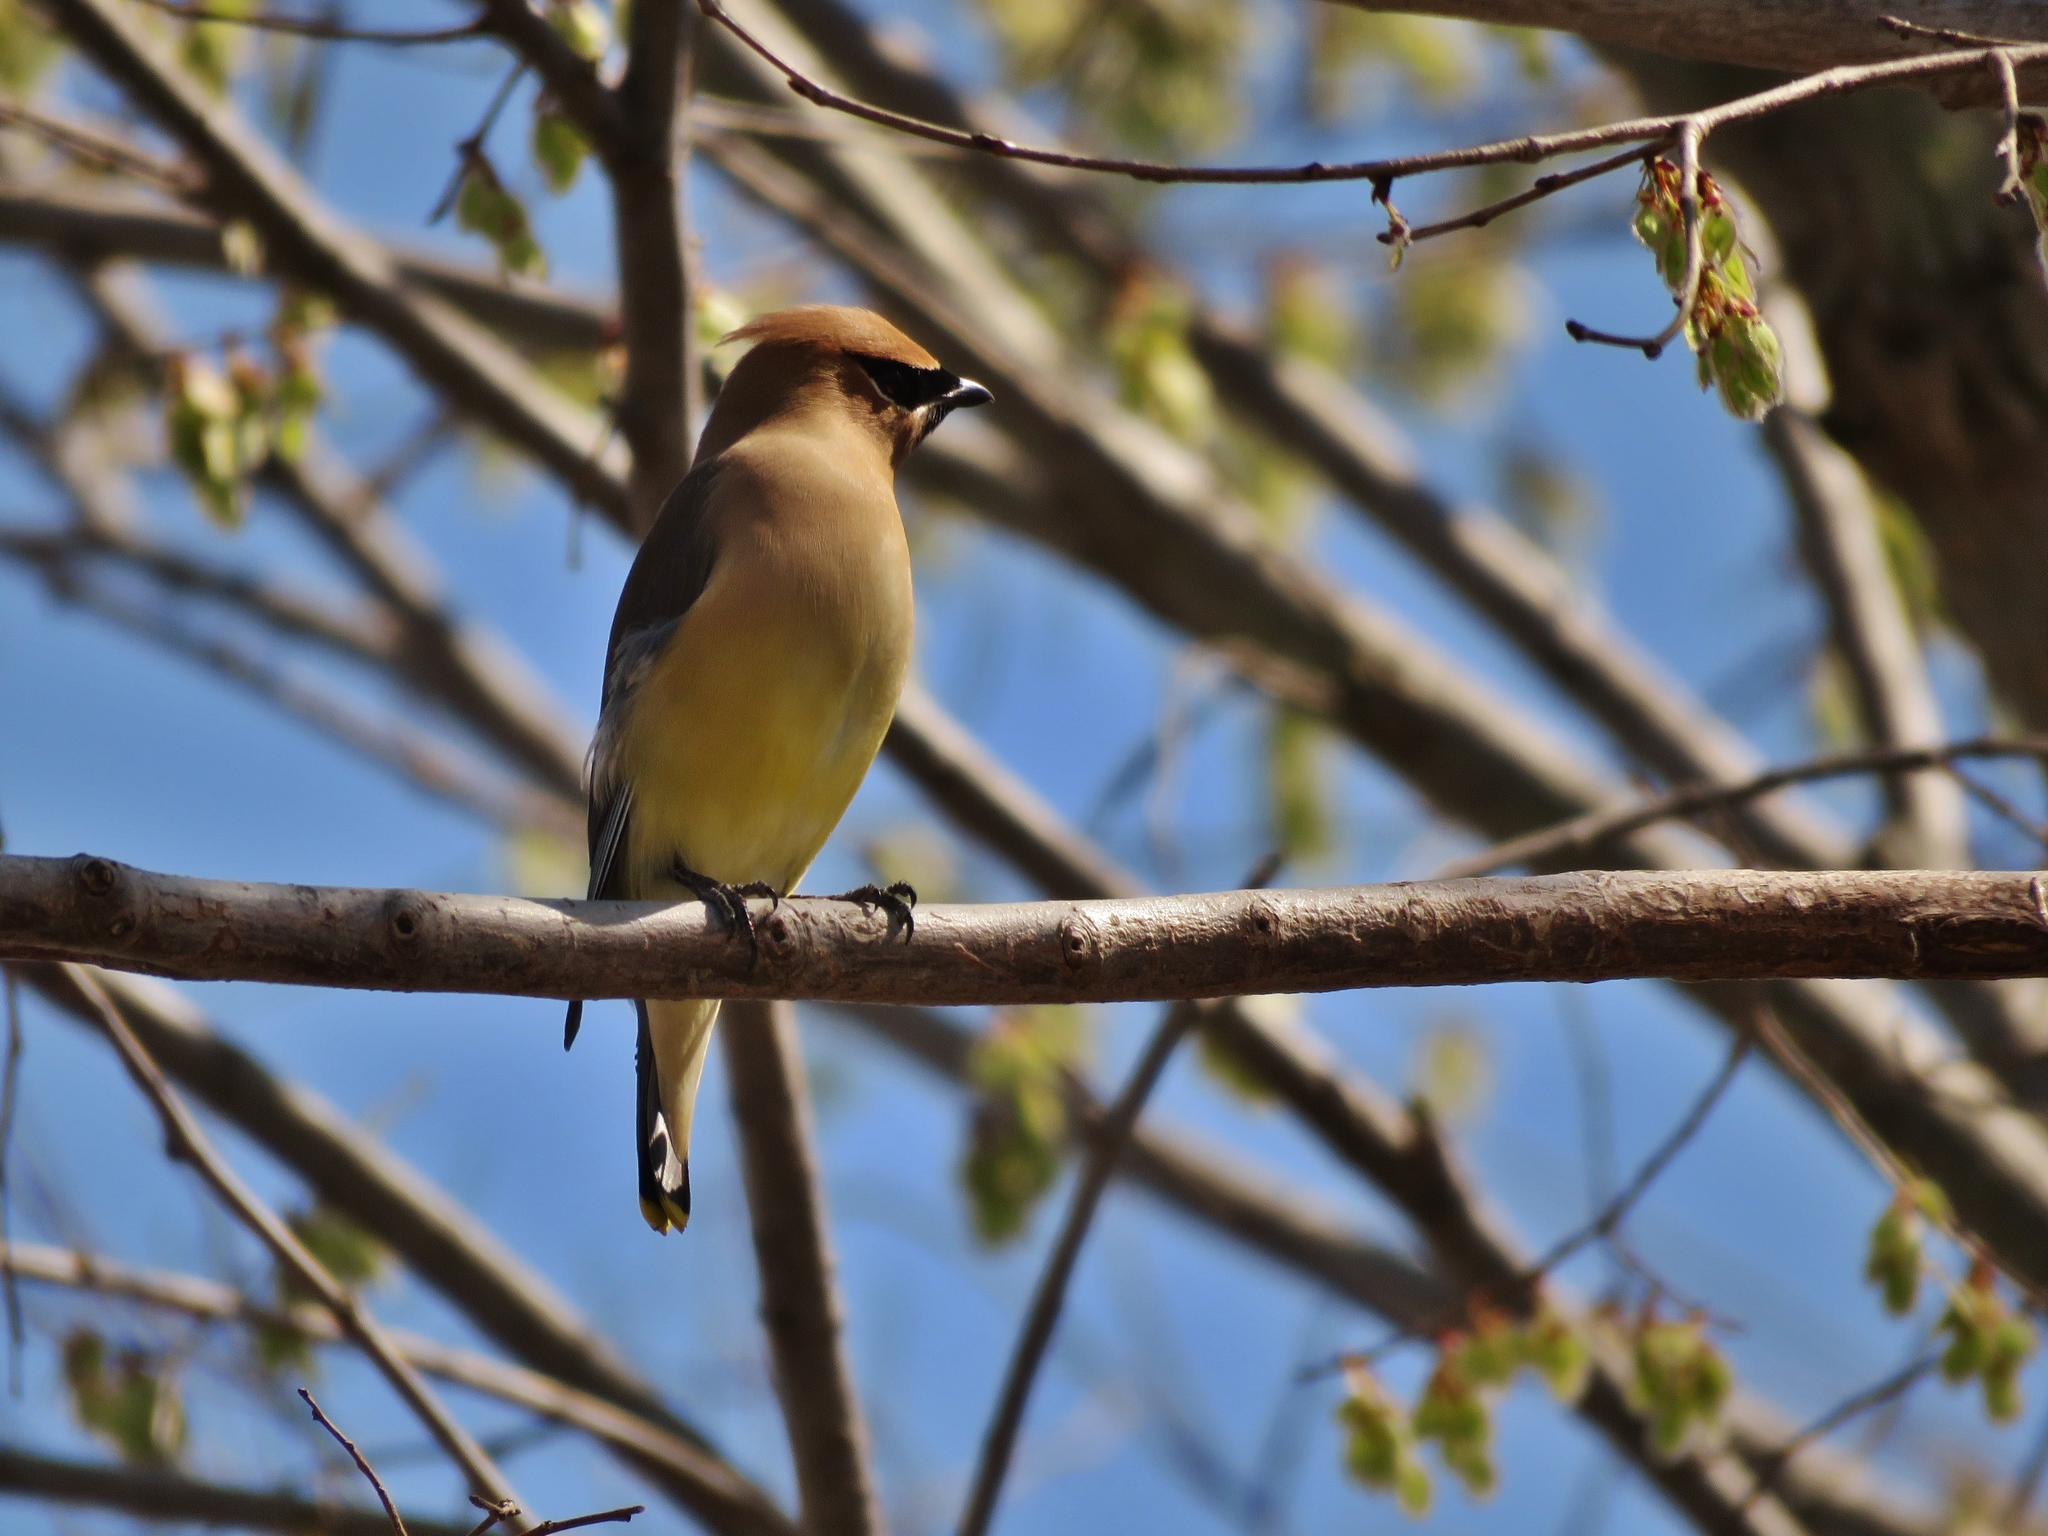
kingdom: Animalia
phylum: Chordata
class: Aves
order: Passeriformes
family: Bombycillidae
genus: Bombycilla
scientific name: Bombycilla cedrorum
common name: Cedar waxwing
